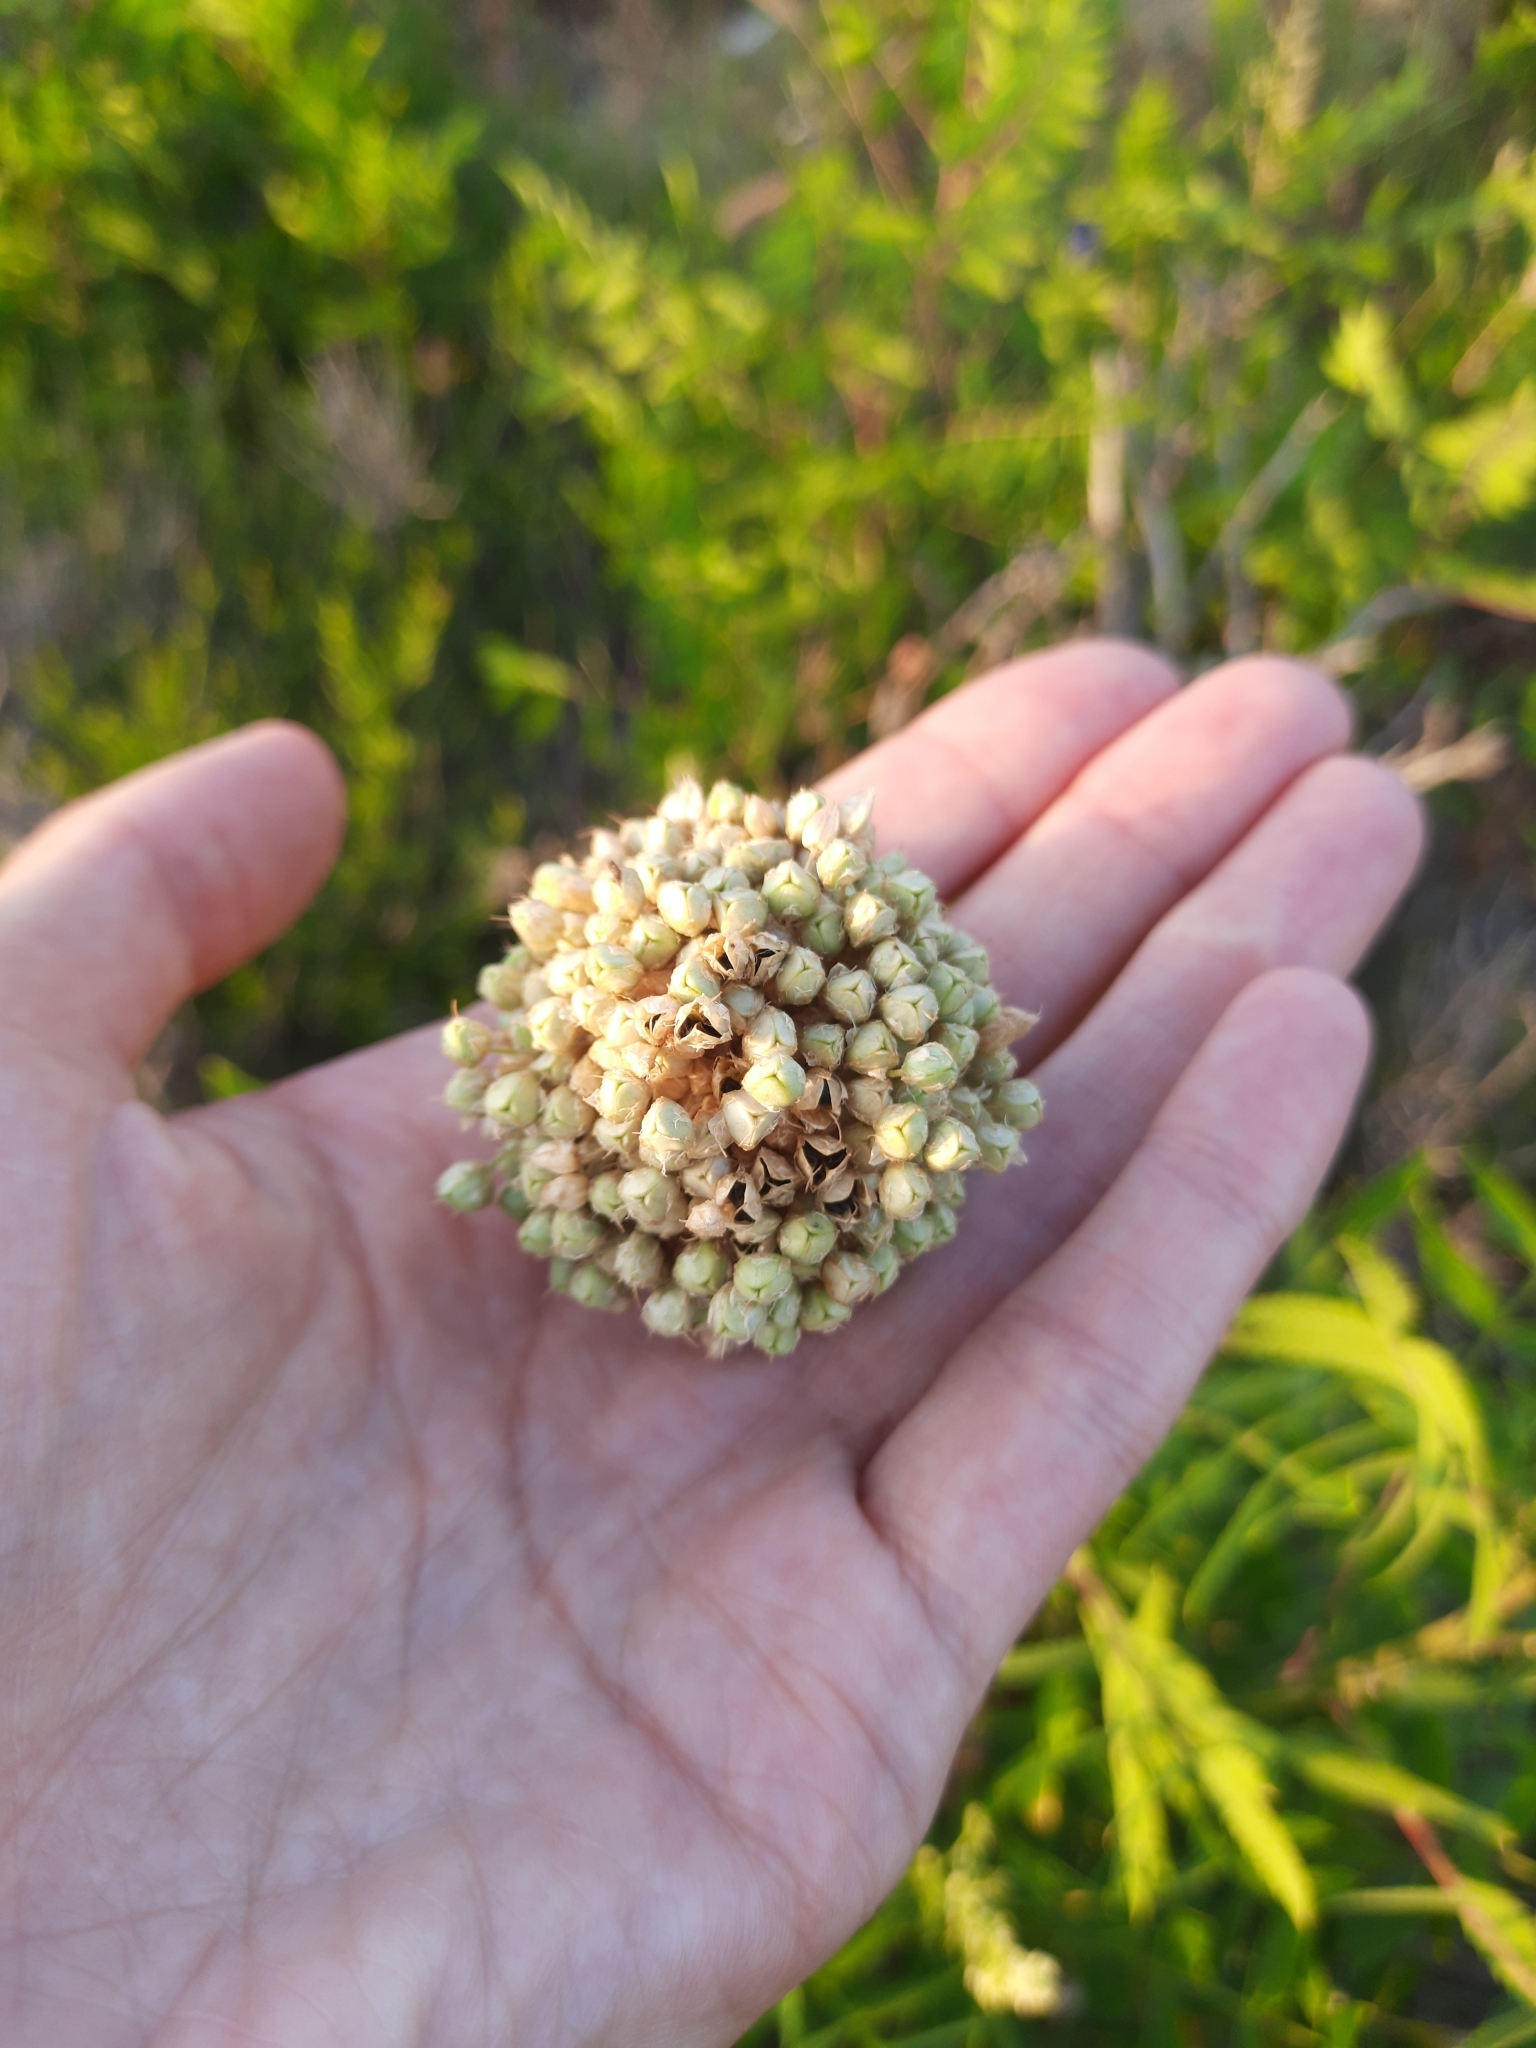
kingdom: Plantae
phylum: Tracheophyta
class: Liliopsida
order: Asparagales
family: Amaryllidaceae
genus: Allium
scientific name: Allium atroviolaceum
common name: Broadleaf wild leek
